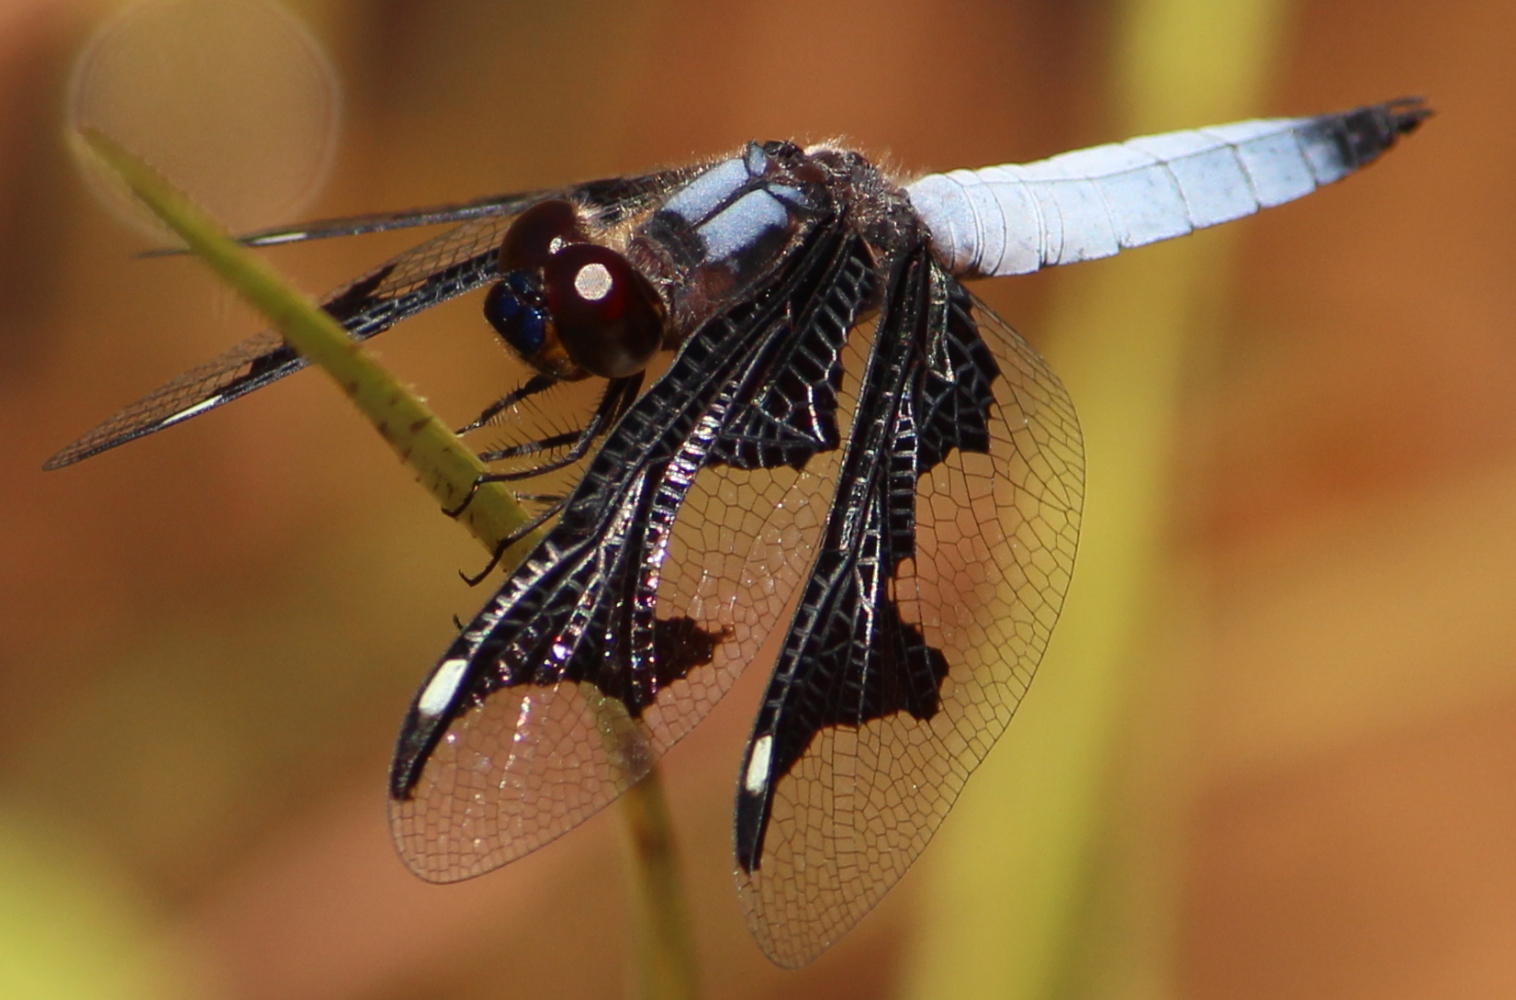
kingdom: Animalia
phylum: Arthropoda
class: Insecta
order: Odonata
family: Libellulidae
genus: Palpopleura
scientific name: Palpopleura portia
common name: Portia widow
